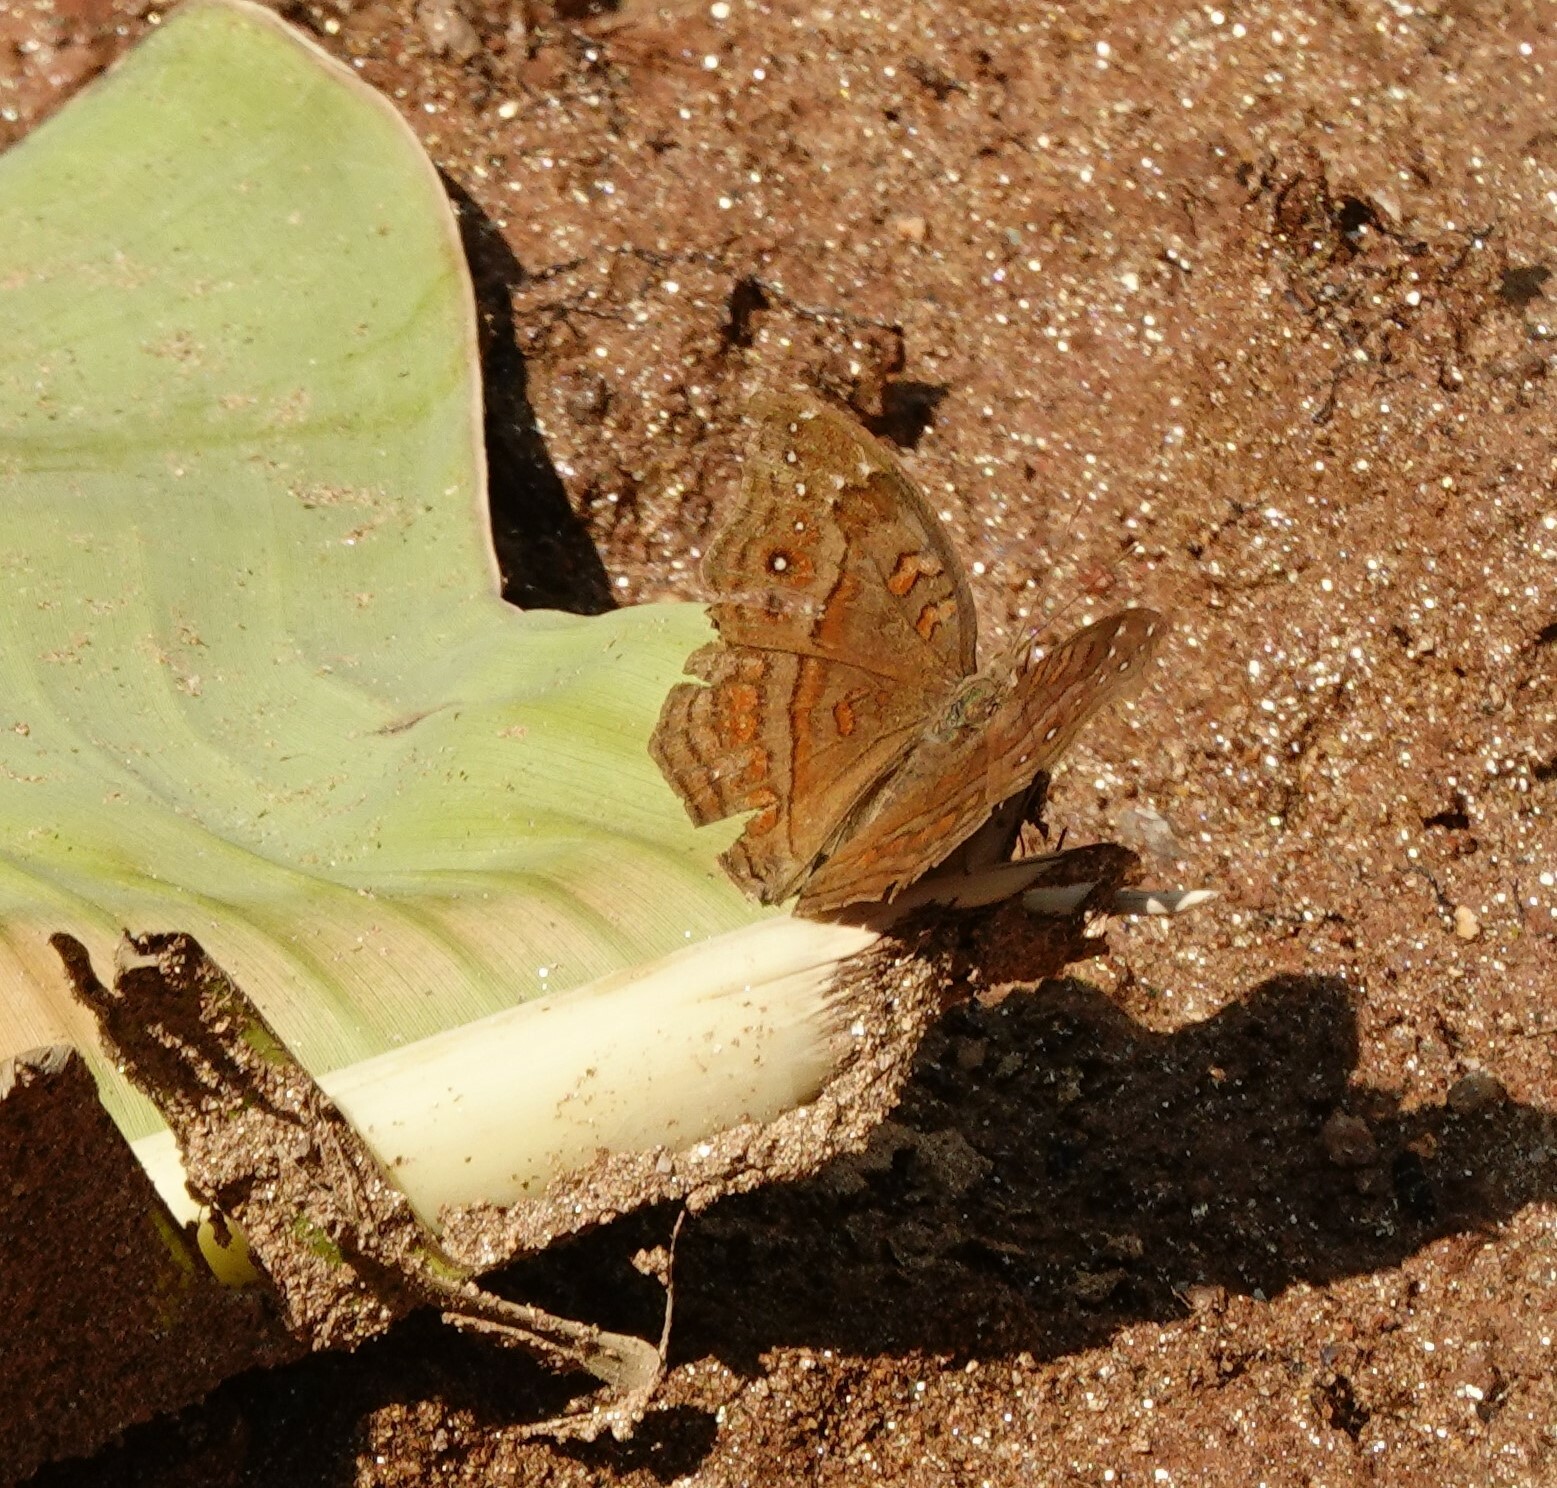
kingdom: Animalia
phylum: Arthropoda
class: Insecta
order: Lepidoptera
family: Nymphalidae
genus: Junonia
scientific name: Junonia goudotii
